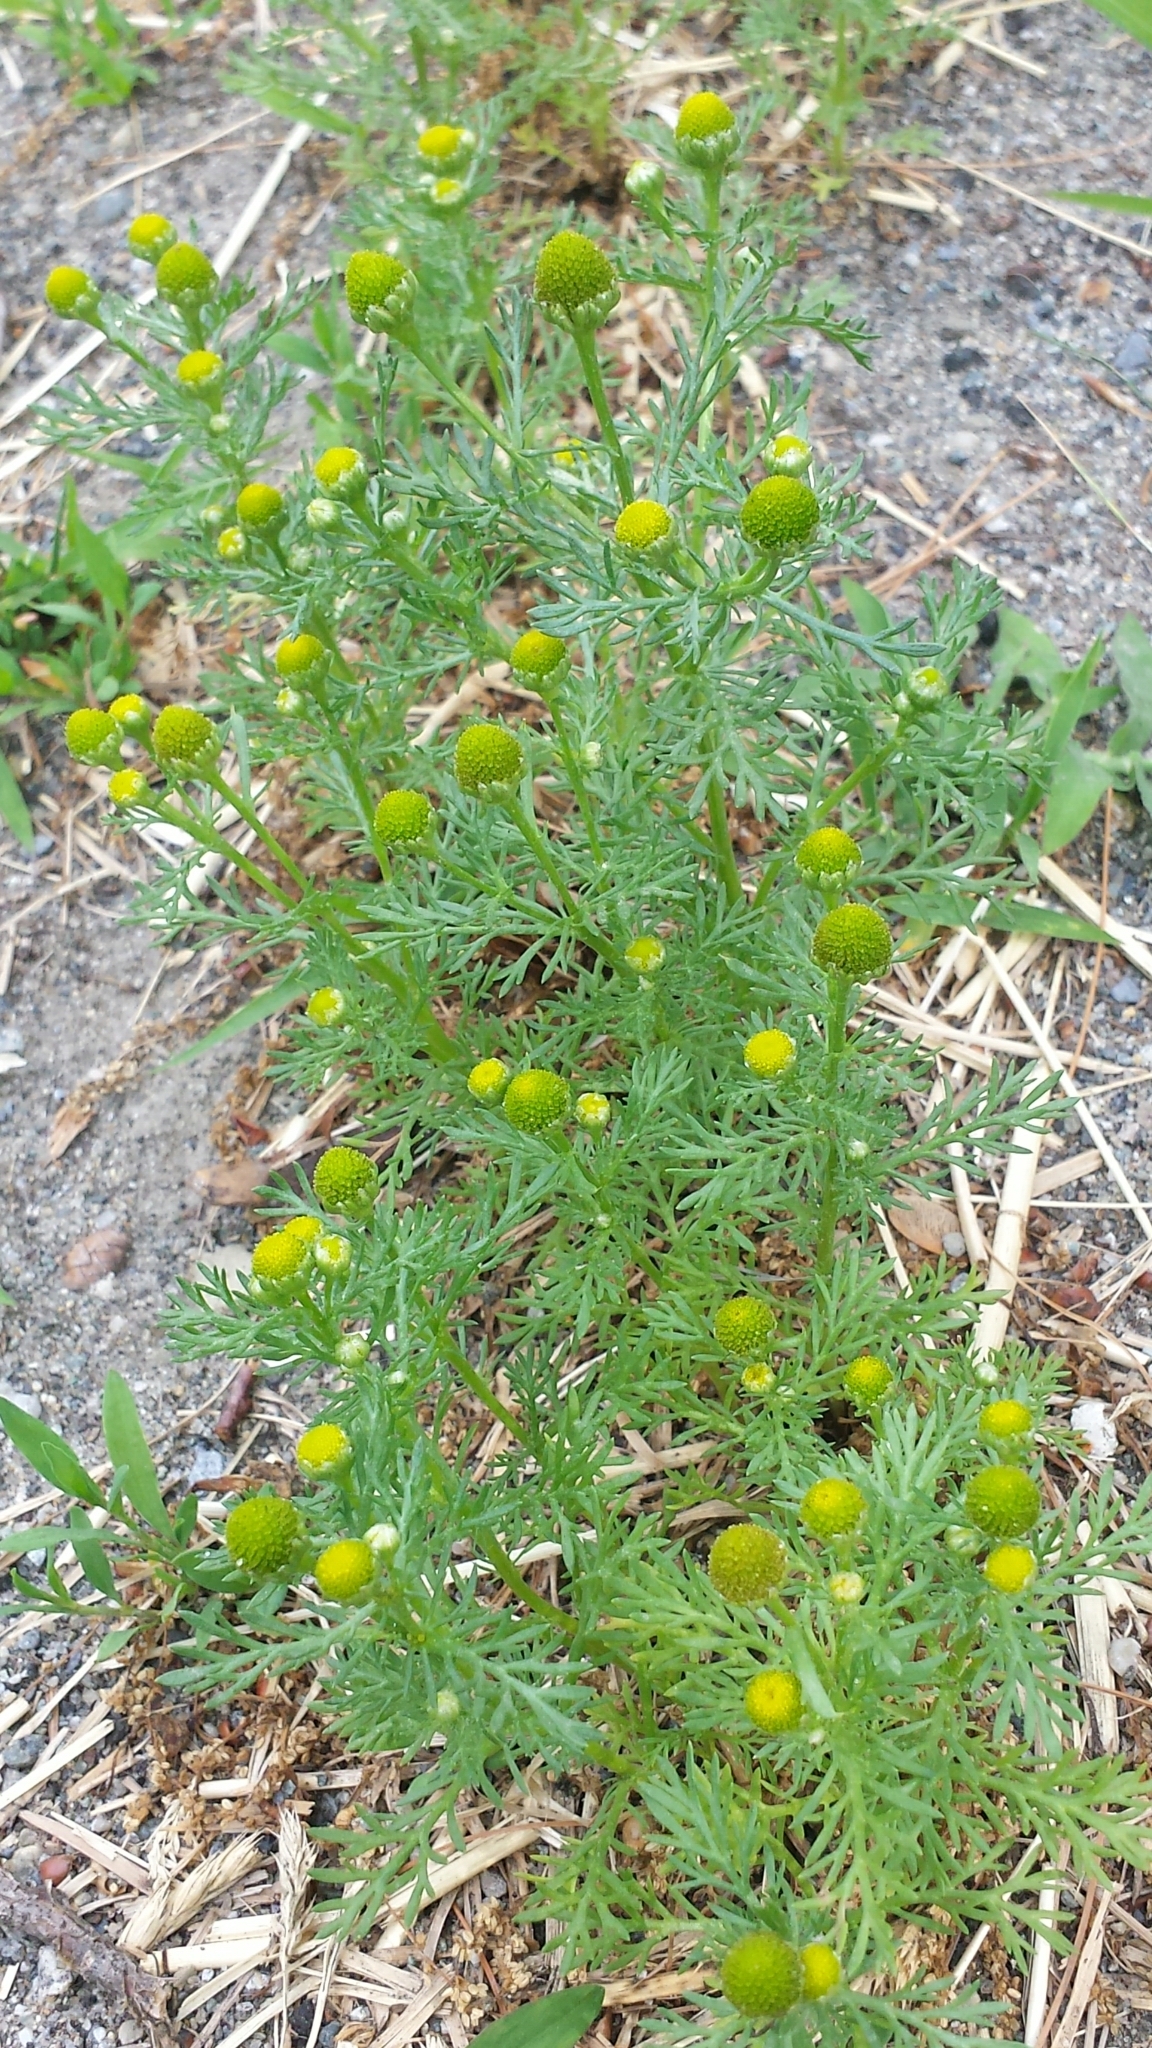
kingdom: Plantae
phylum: Tracheophyta
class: Magnoliopsida
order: Asterales
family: Asteraceae
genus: Matricaria
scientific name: Matricaria discoidea
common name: Disc mayweed
